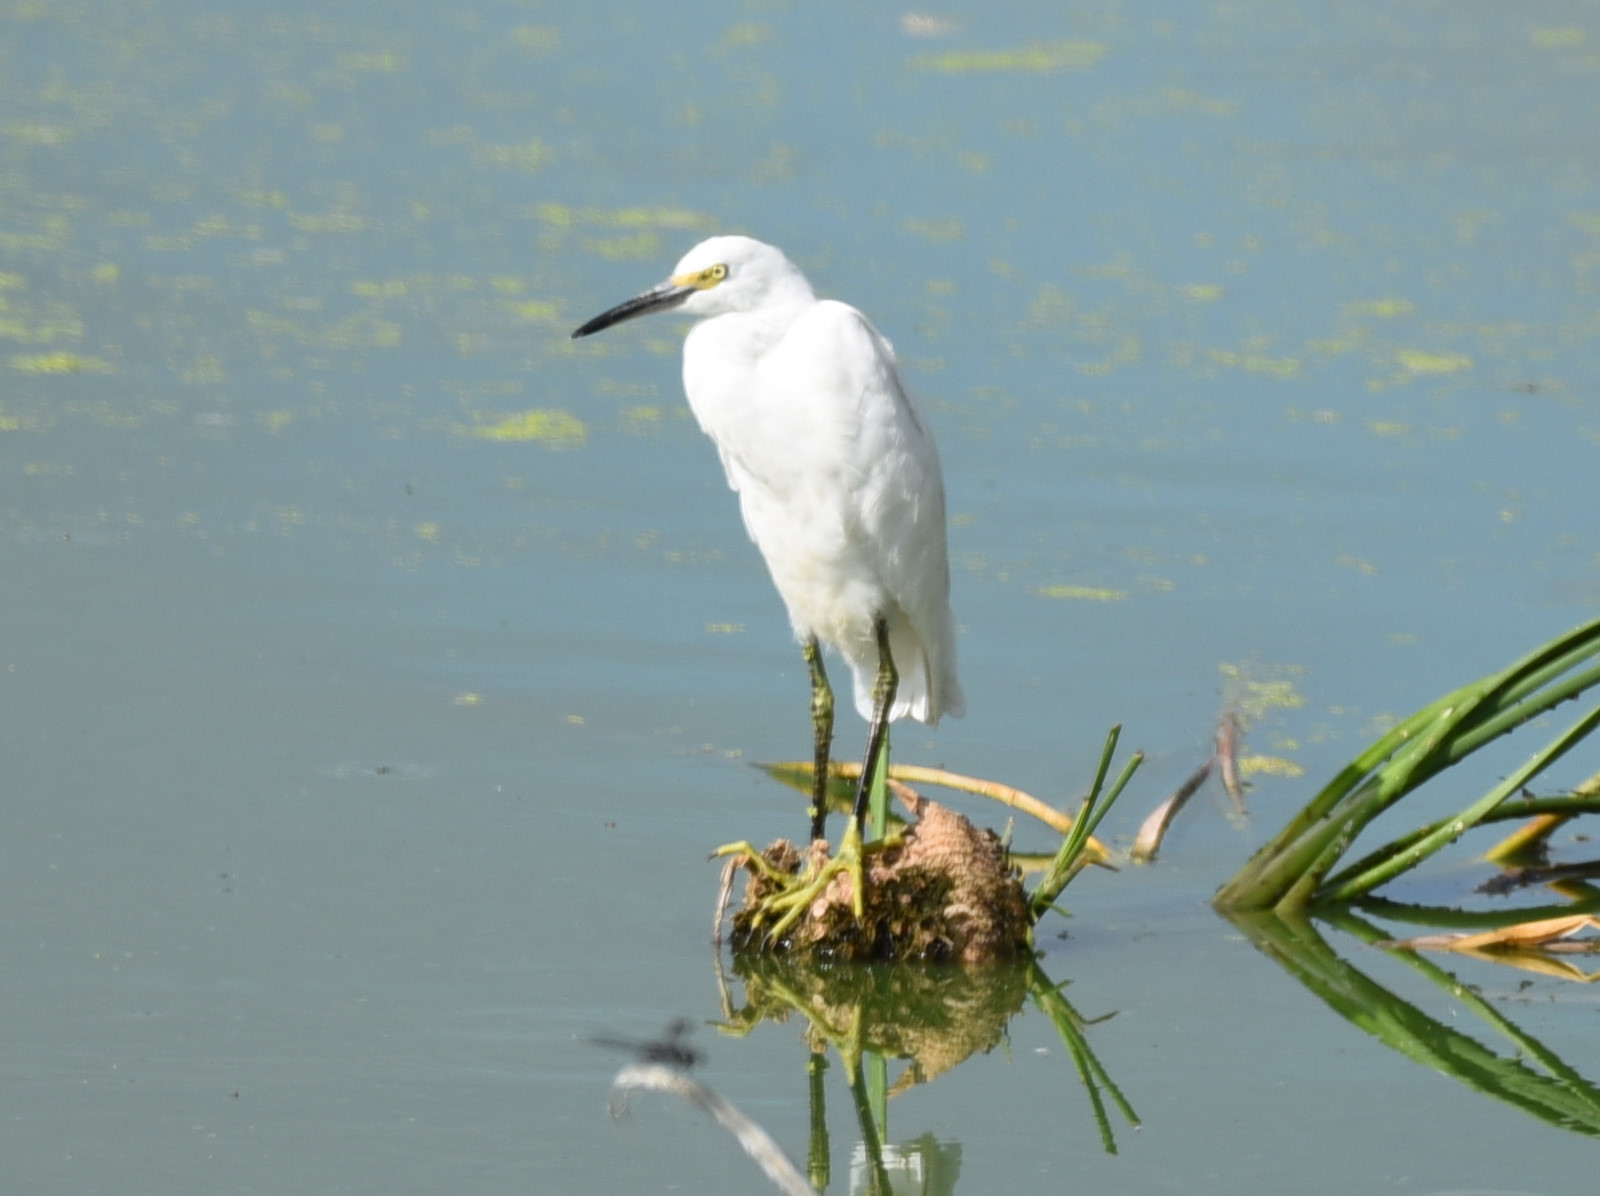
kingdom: Animalia
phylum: Chordata
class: Aves
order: Pelecaniformes
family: Ardeidae
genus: Egretta
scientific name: Egretta thula
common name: Snowy egret
